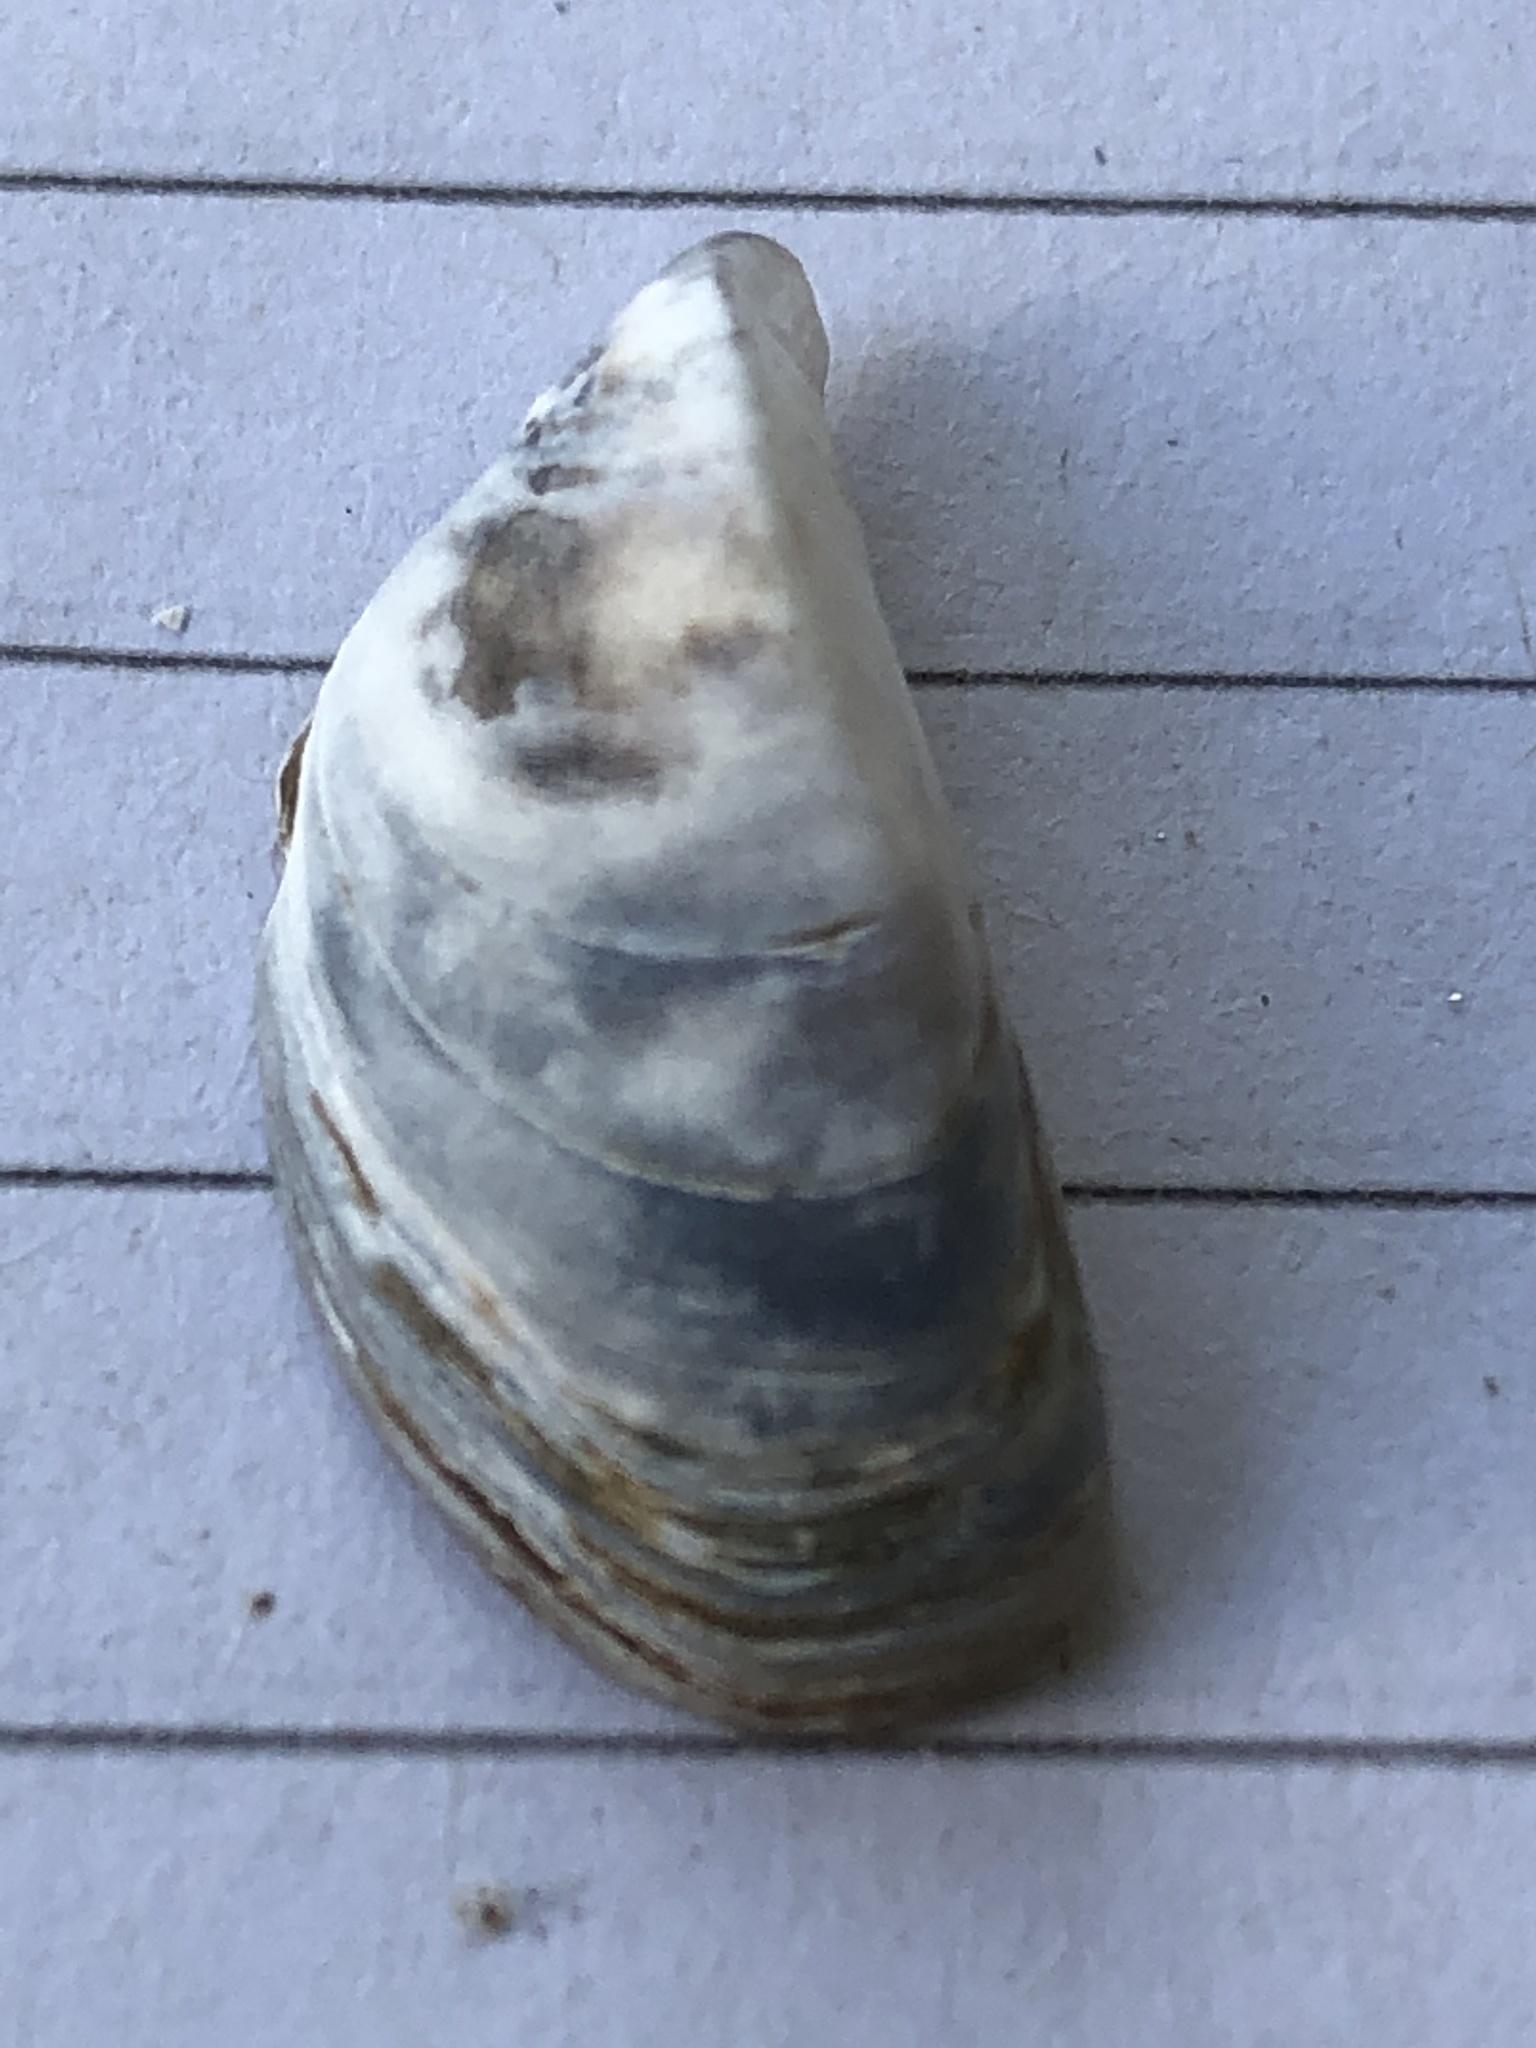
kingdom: Animalia
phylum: Mollusca
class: Bivalvia
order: Myida
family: Dreissenidae
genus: Dreissena
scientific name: Dreissena polymorpha
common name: Zebra mussel
